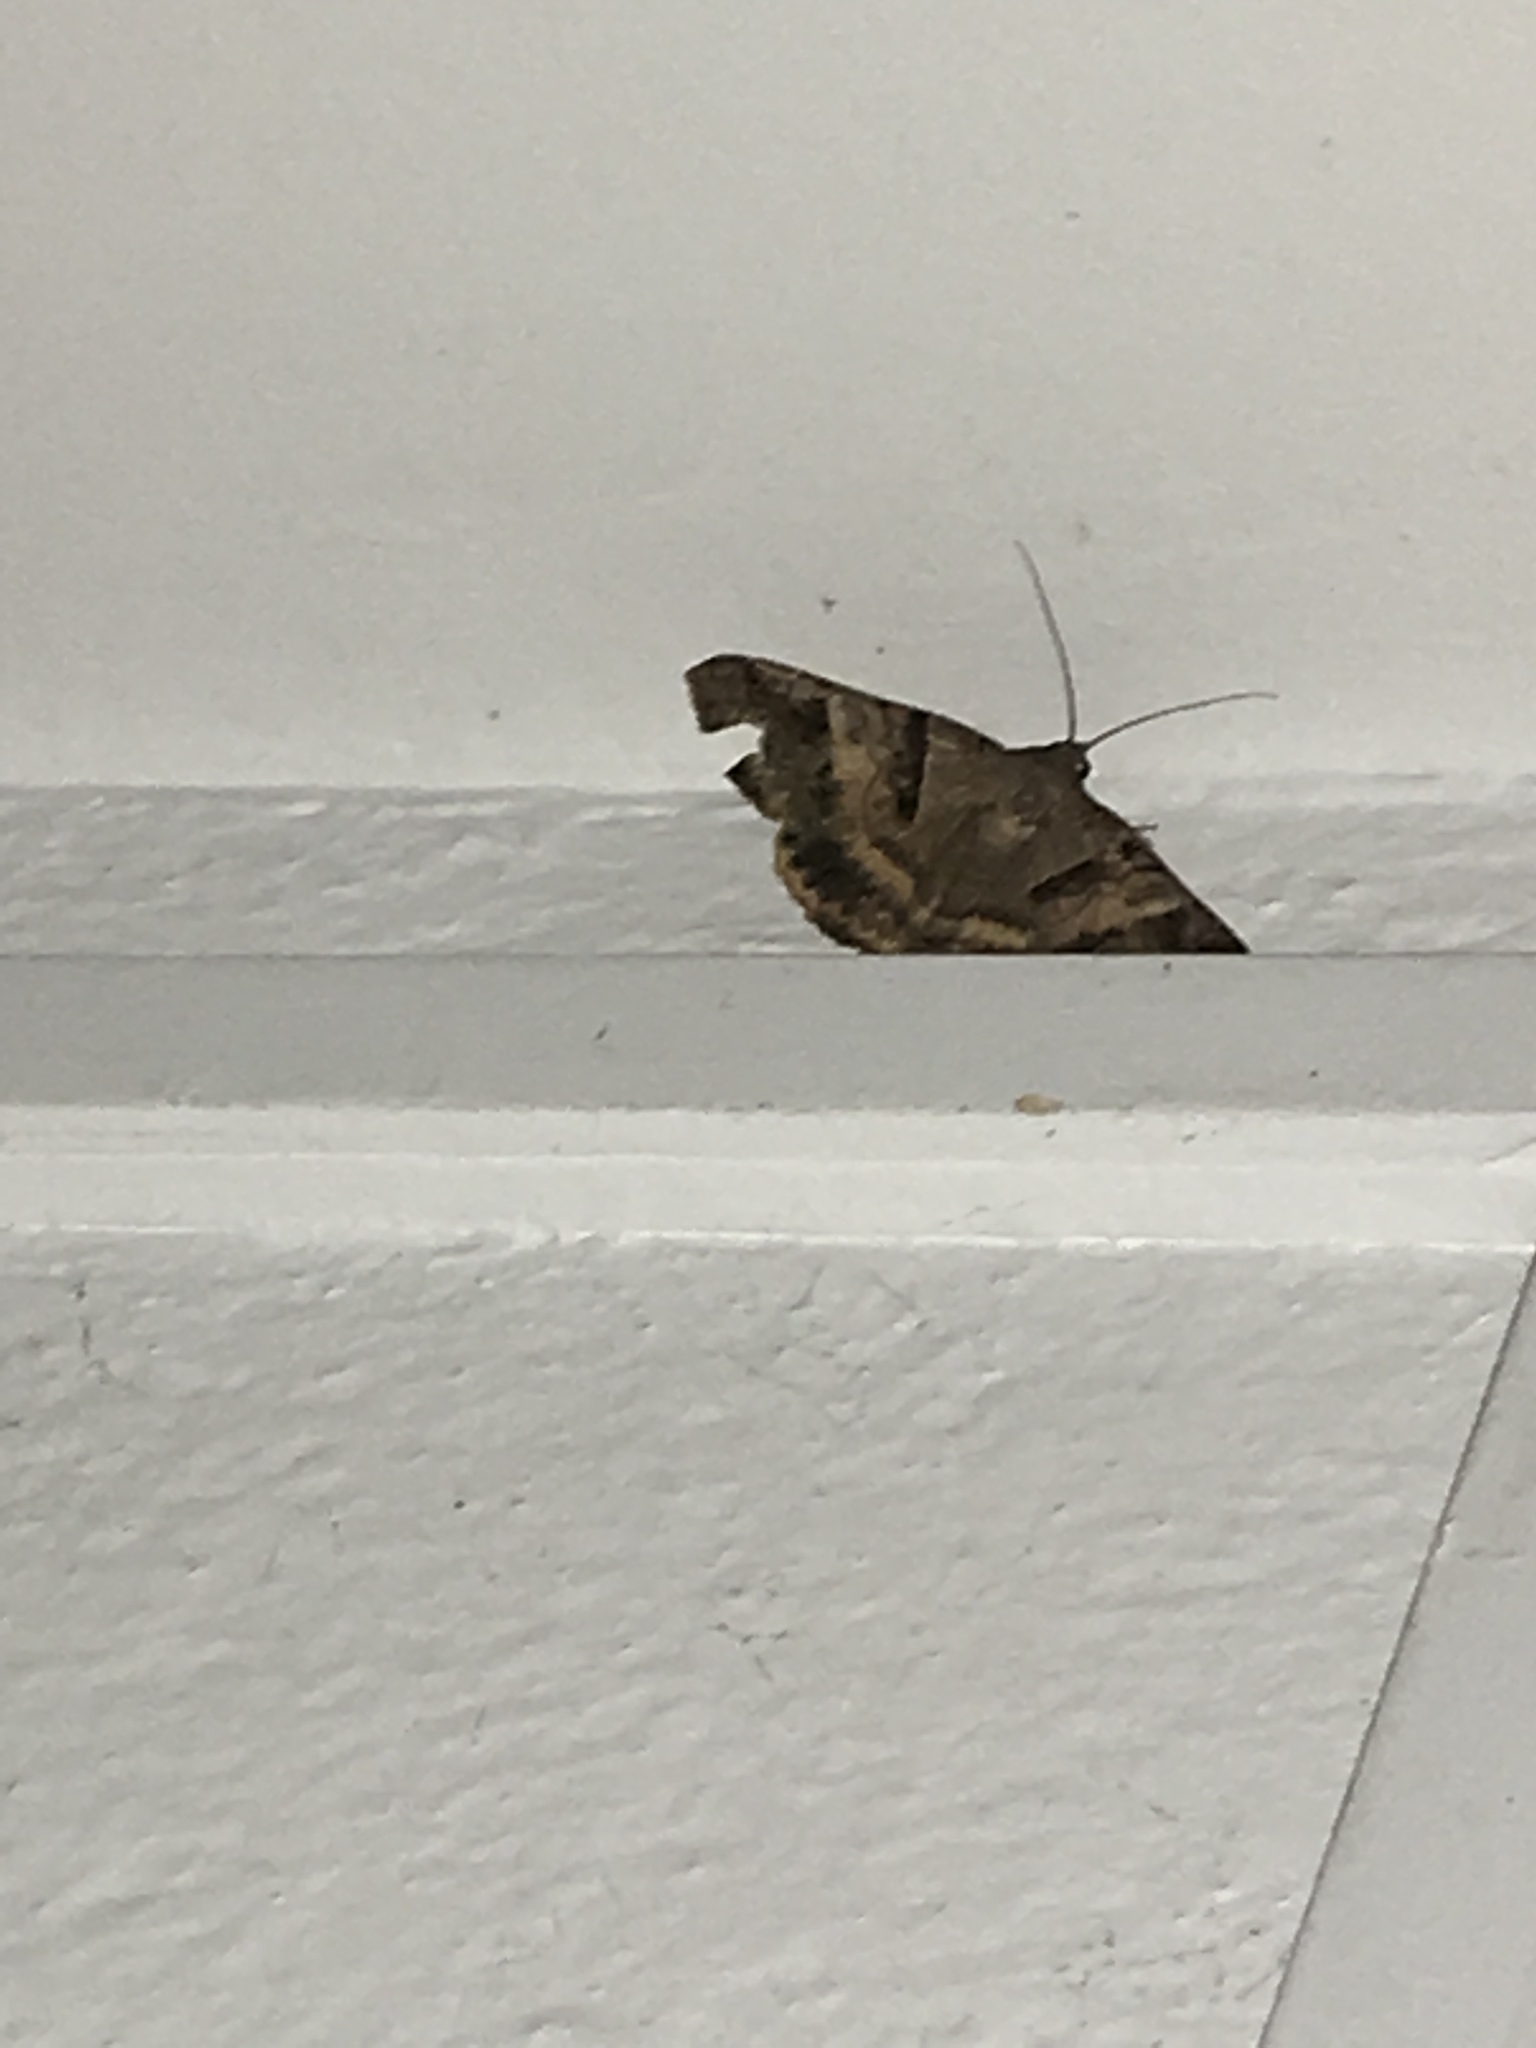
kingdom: Animalia
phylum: Arthropoda
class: Insecta
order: Lepidoptera
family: Erebidae
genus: Mocis
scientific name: Mocis undata
